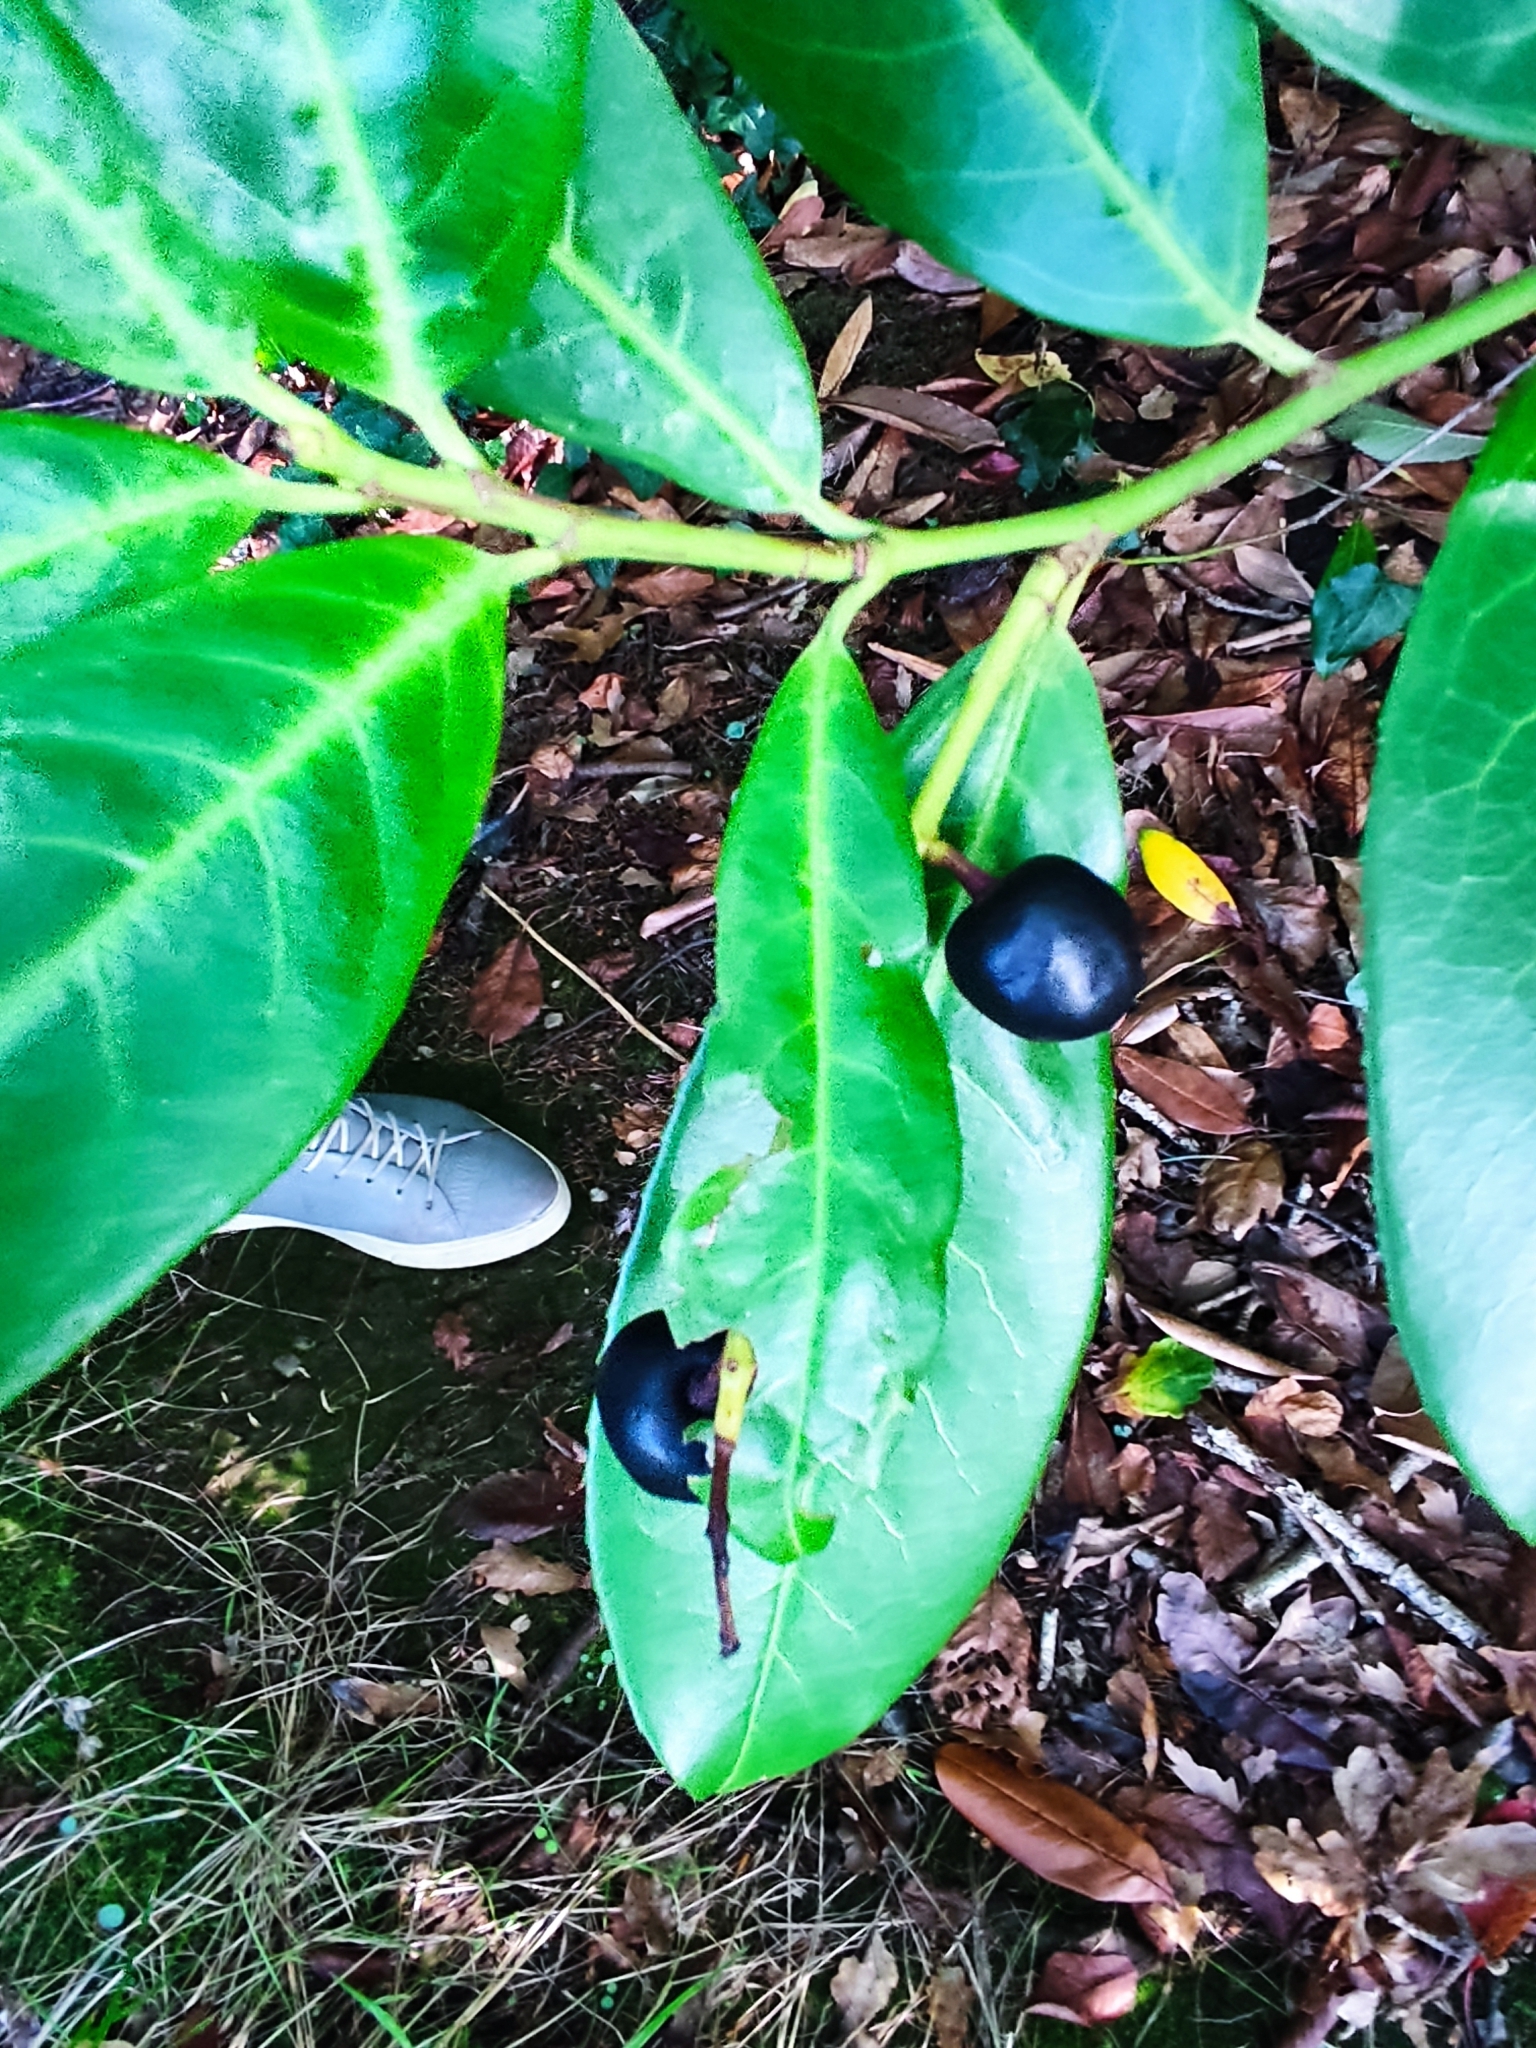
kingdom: Plantae
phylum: Tracheophyta
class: Magnoliopsida
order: Rosales
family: Rosaceae
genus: Prunus
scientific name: Prunus laurocerasus
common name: Cherry laurel
